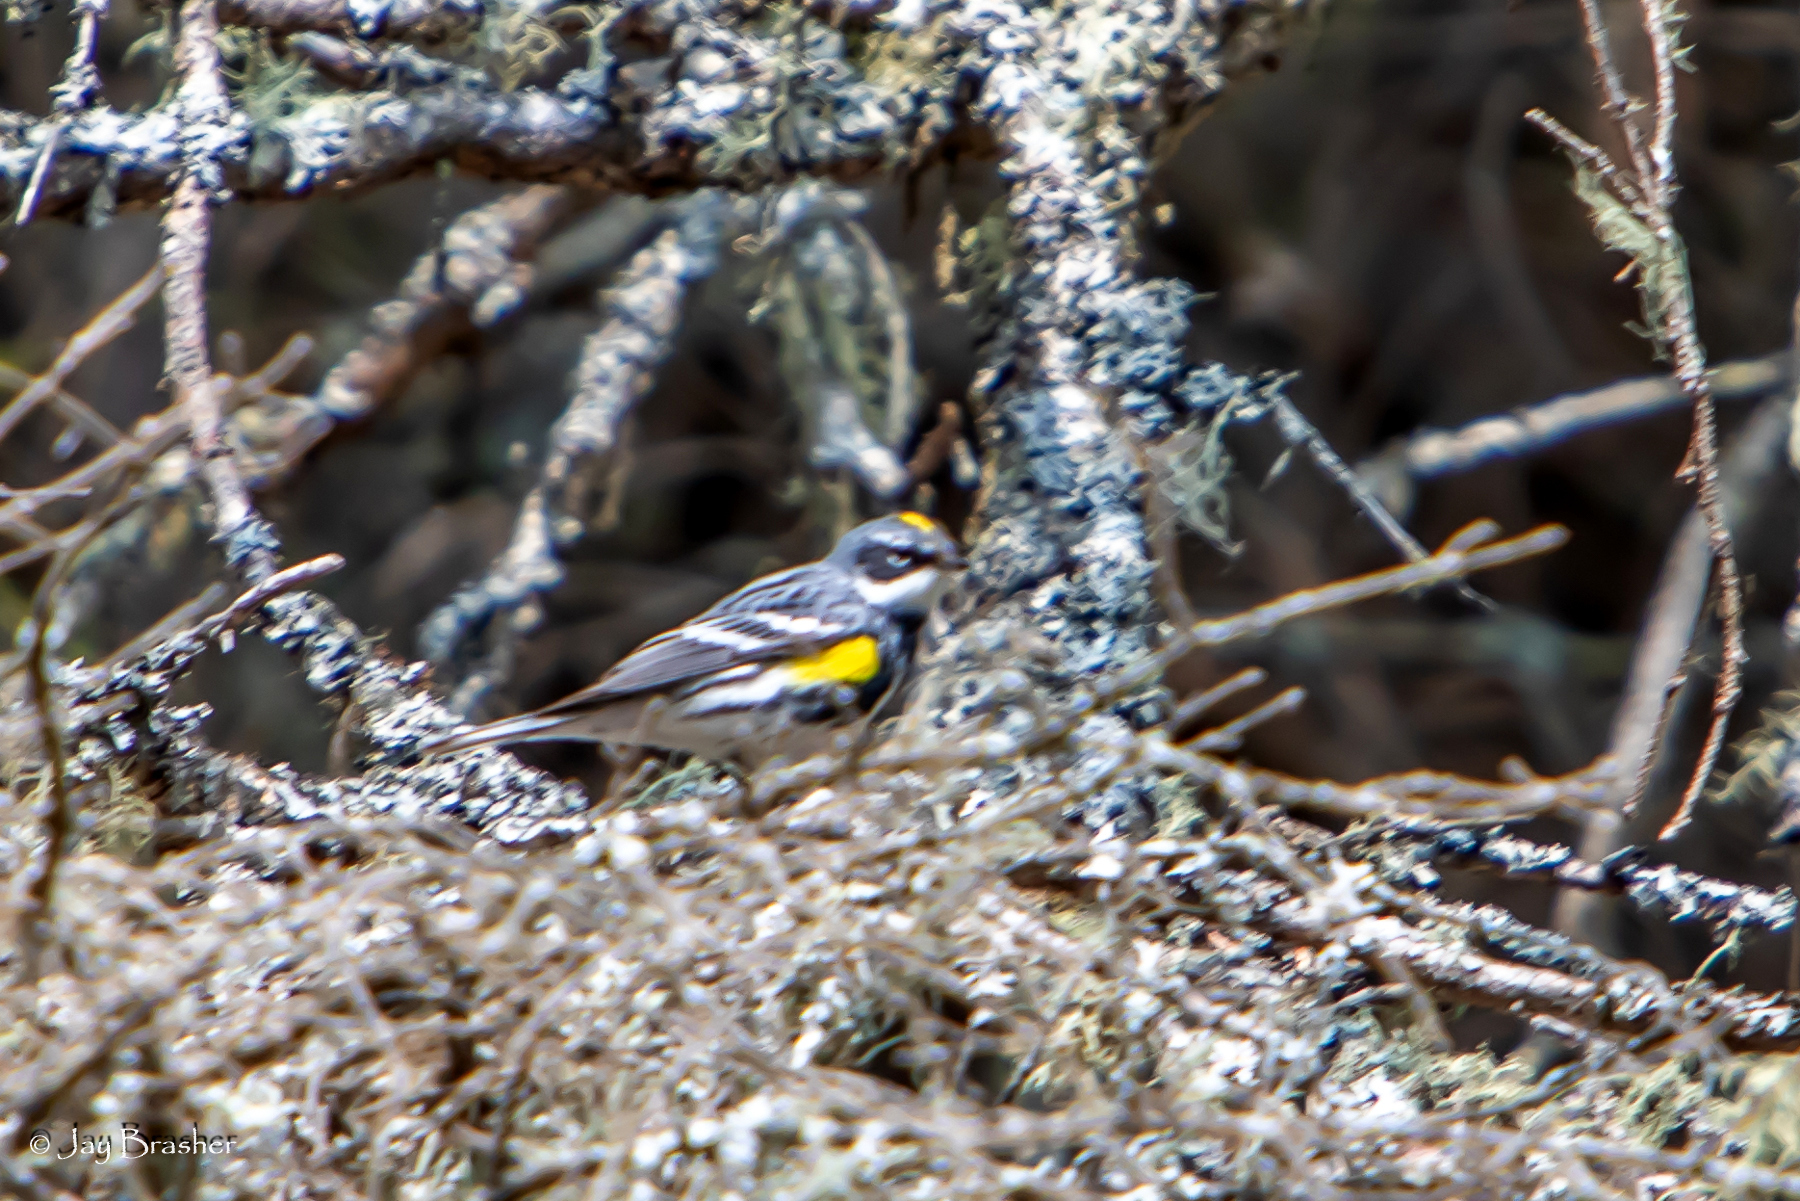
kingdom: Animalia
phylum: Chordata
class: Aves
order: Passeriformes
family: Parulidae
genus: Setophaga
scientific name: Setophaga coronata
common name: Myrtle warbler
